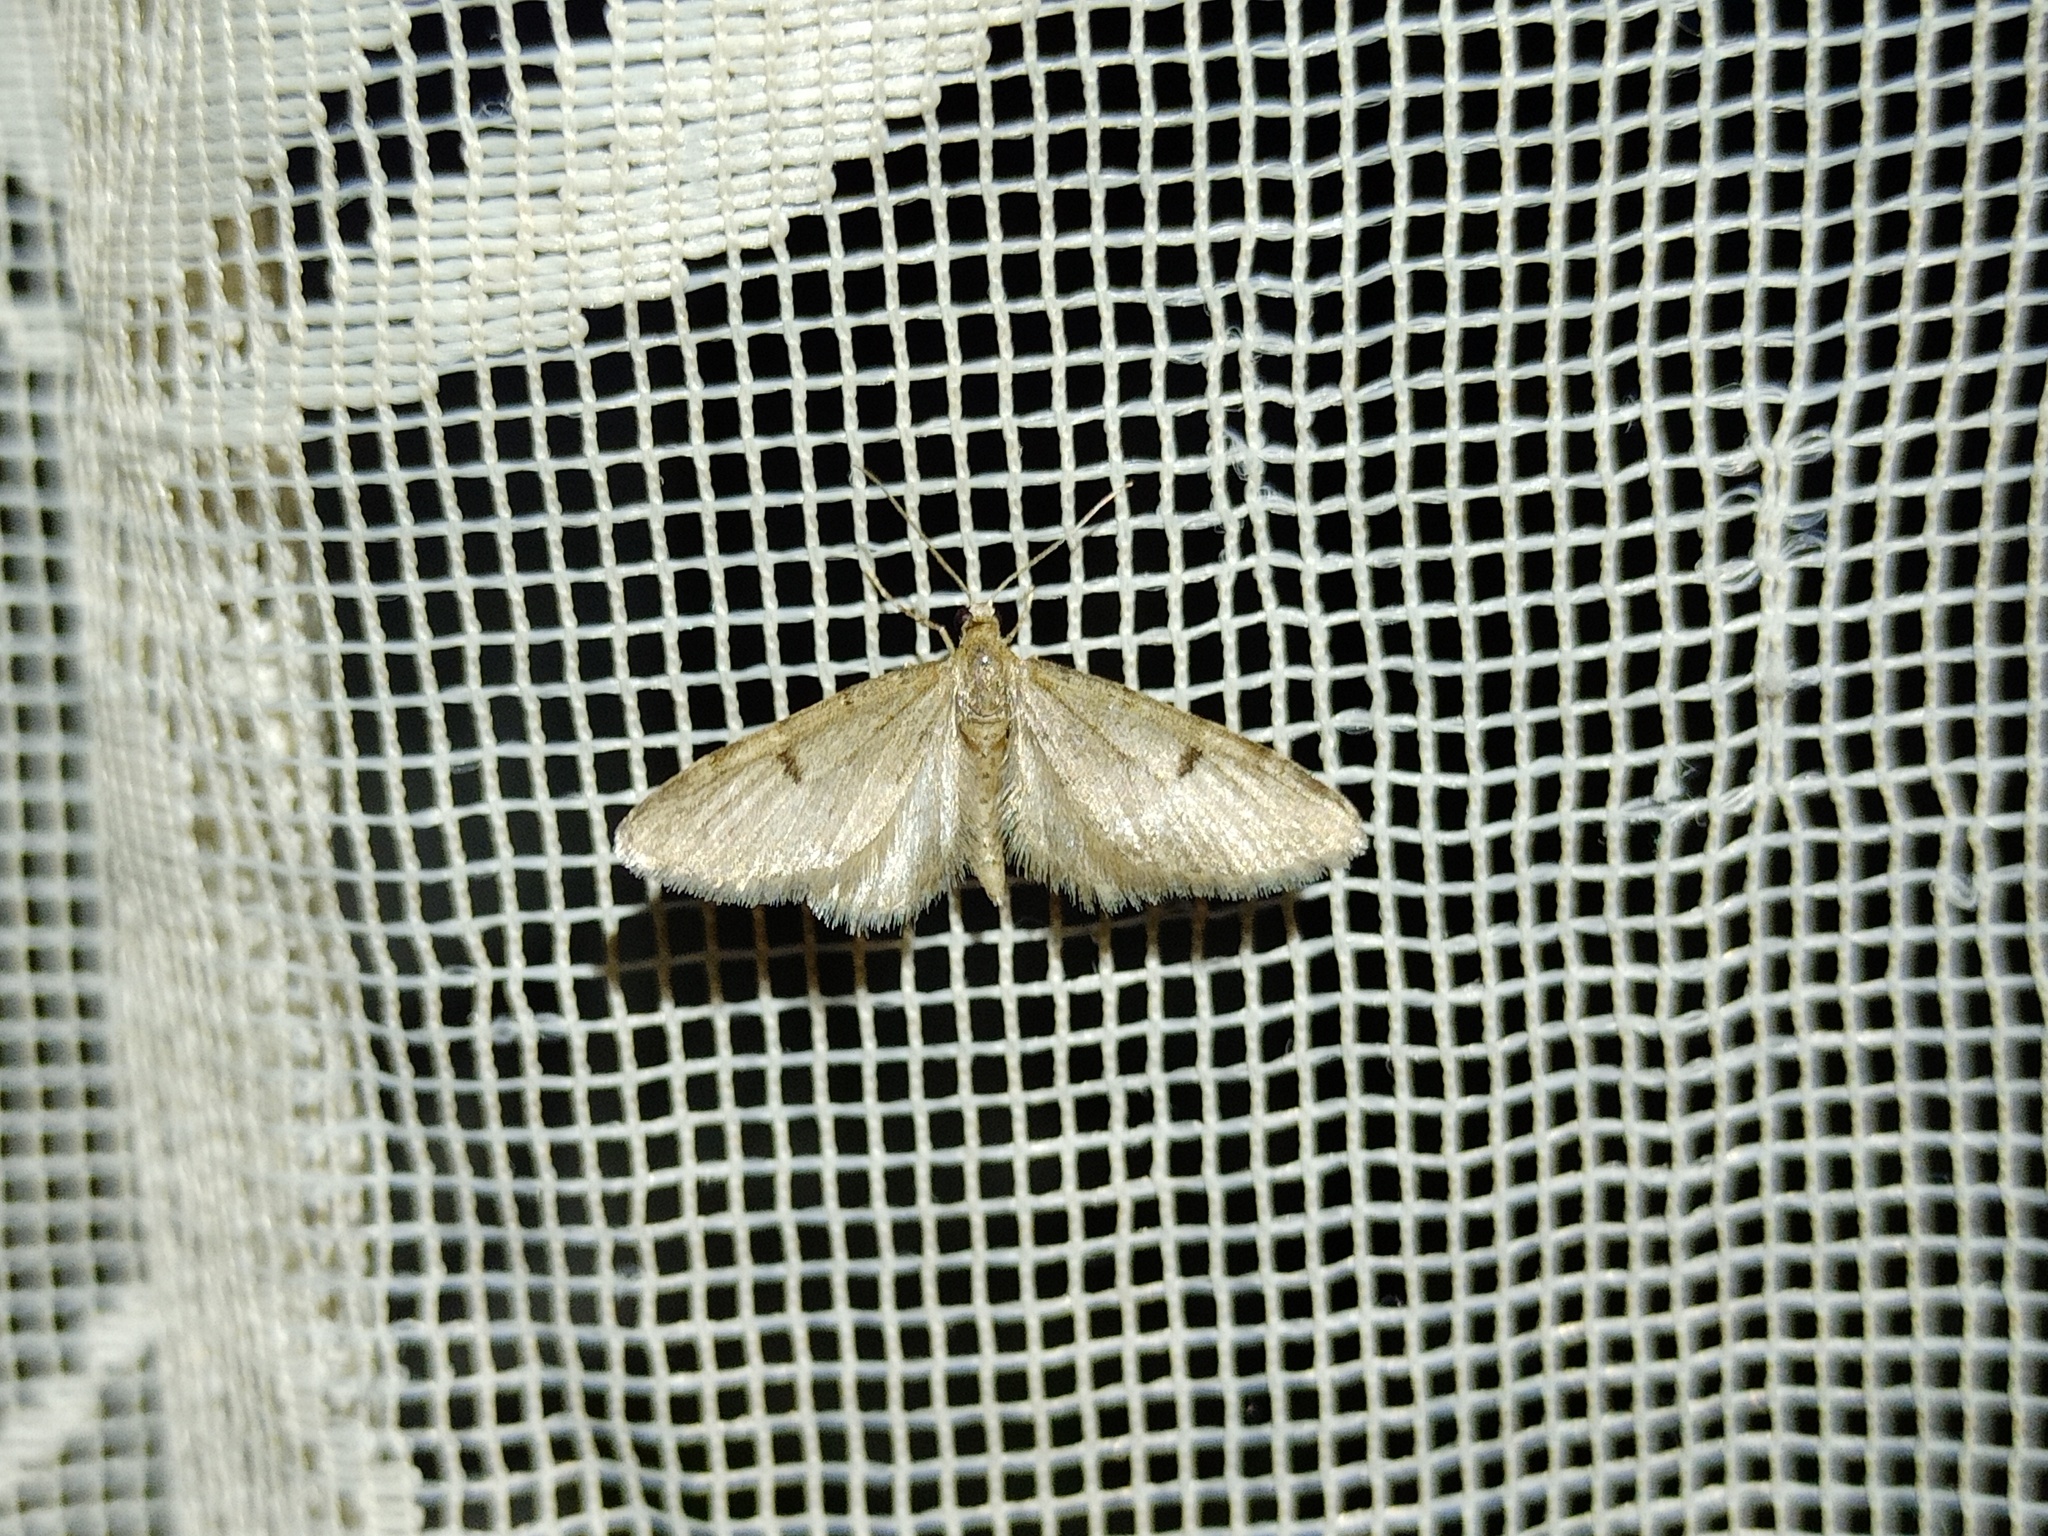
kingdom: Animalia
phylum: Arthropoda
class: Insecta
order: Lepidoptera
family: Geometridae
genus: Eupithecia
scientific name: Eupithecia indigata
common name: Ochreous pug
